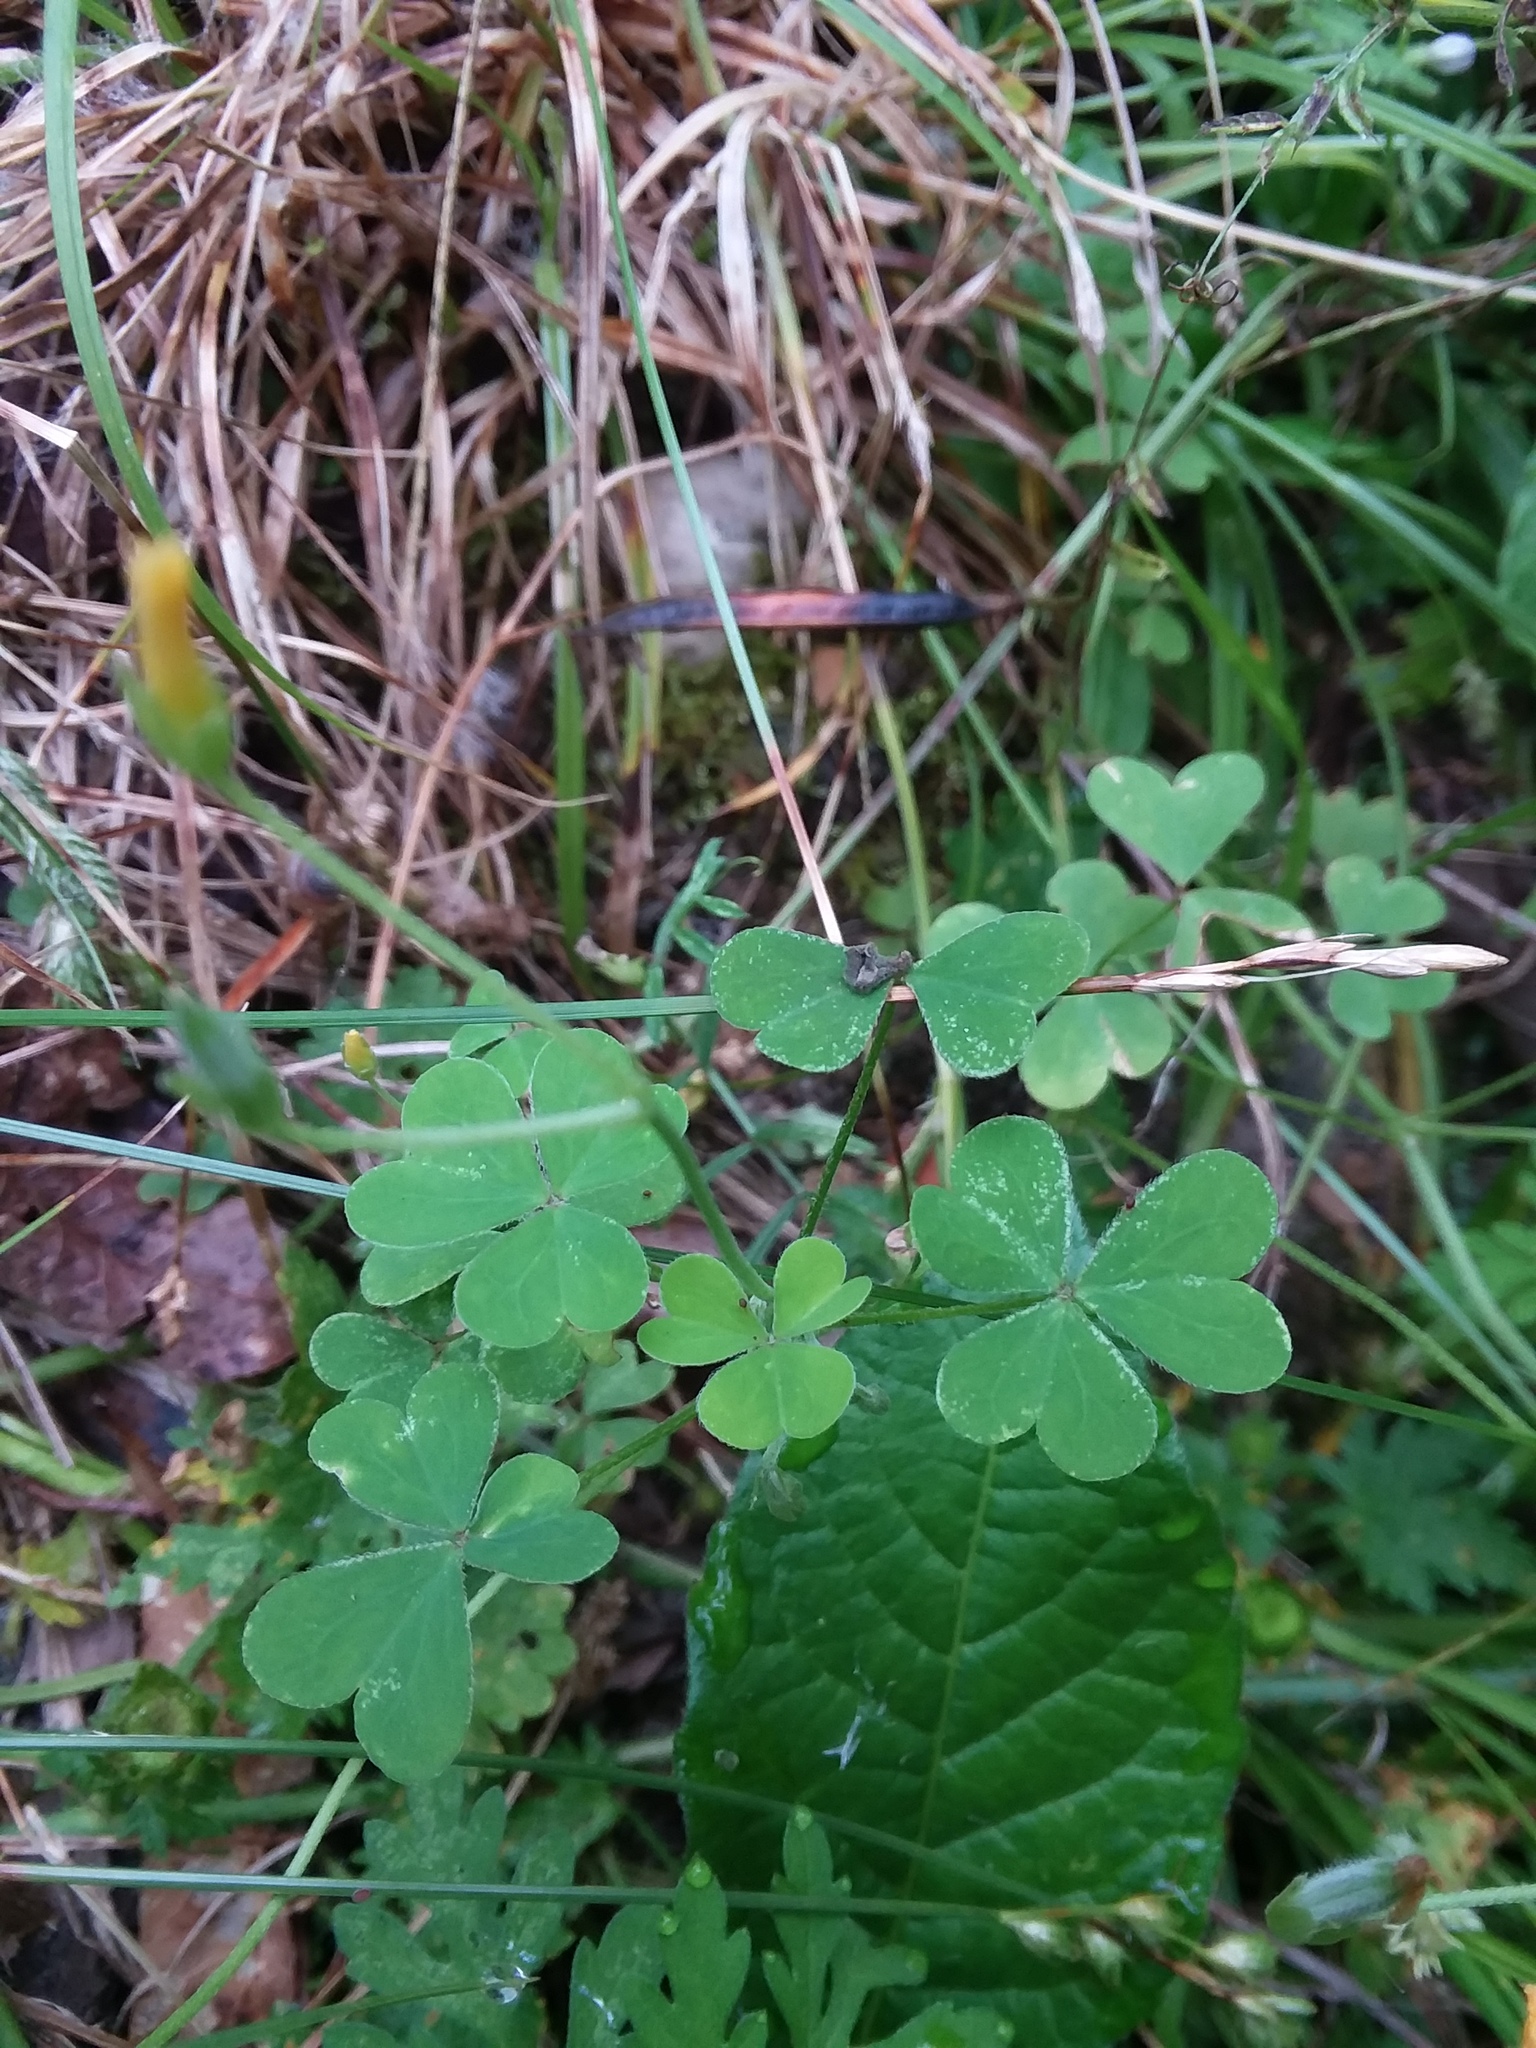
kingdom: Plantae
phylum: Tracheophyta
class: Magnoliopsida
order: Oxalidales
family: Oxalidaceae
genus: Oxalis
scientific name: Oxalis dillenii
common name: Sussex yellow-sorrel
